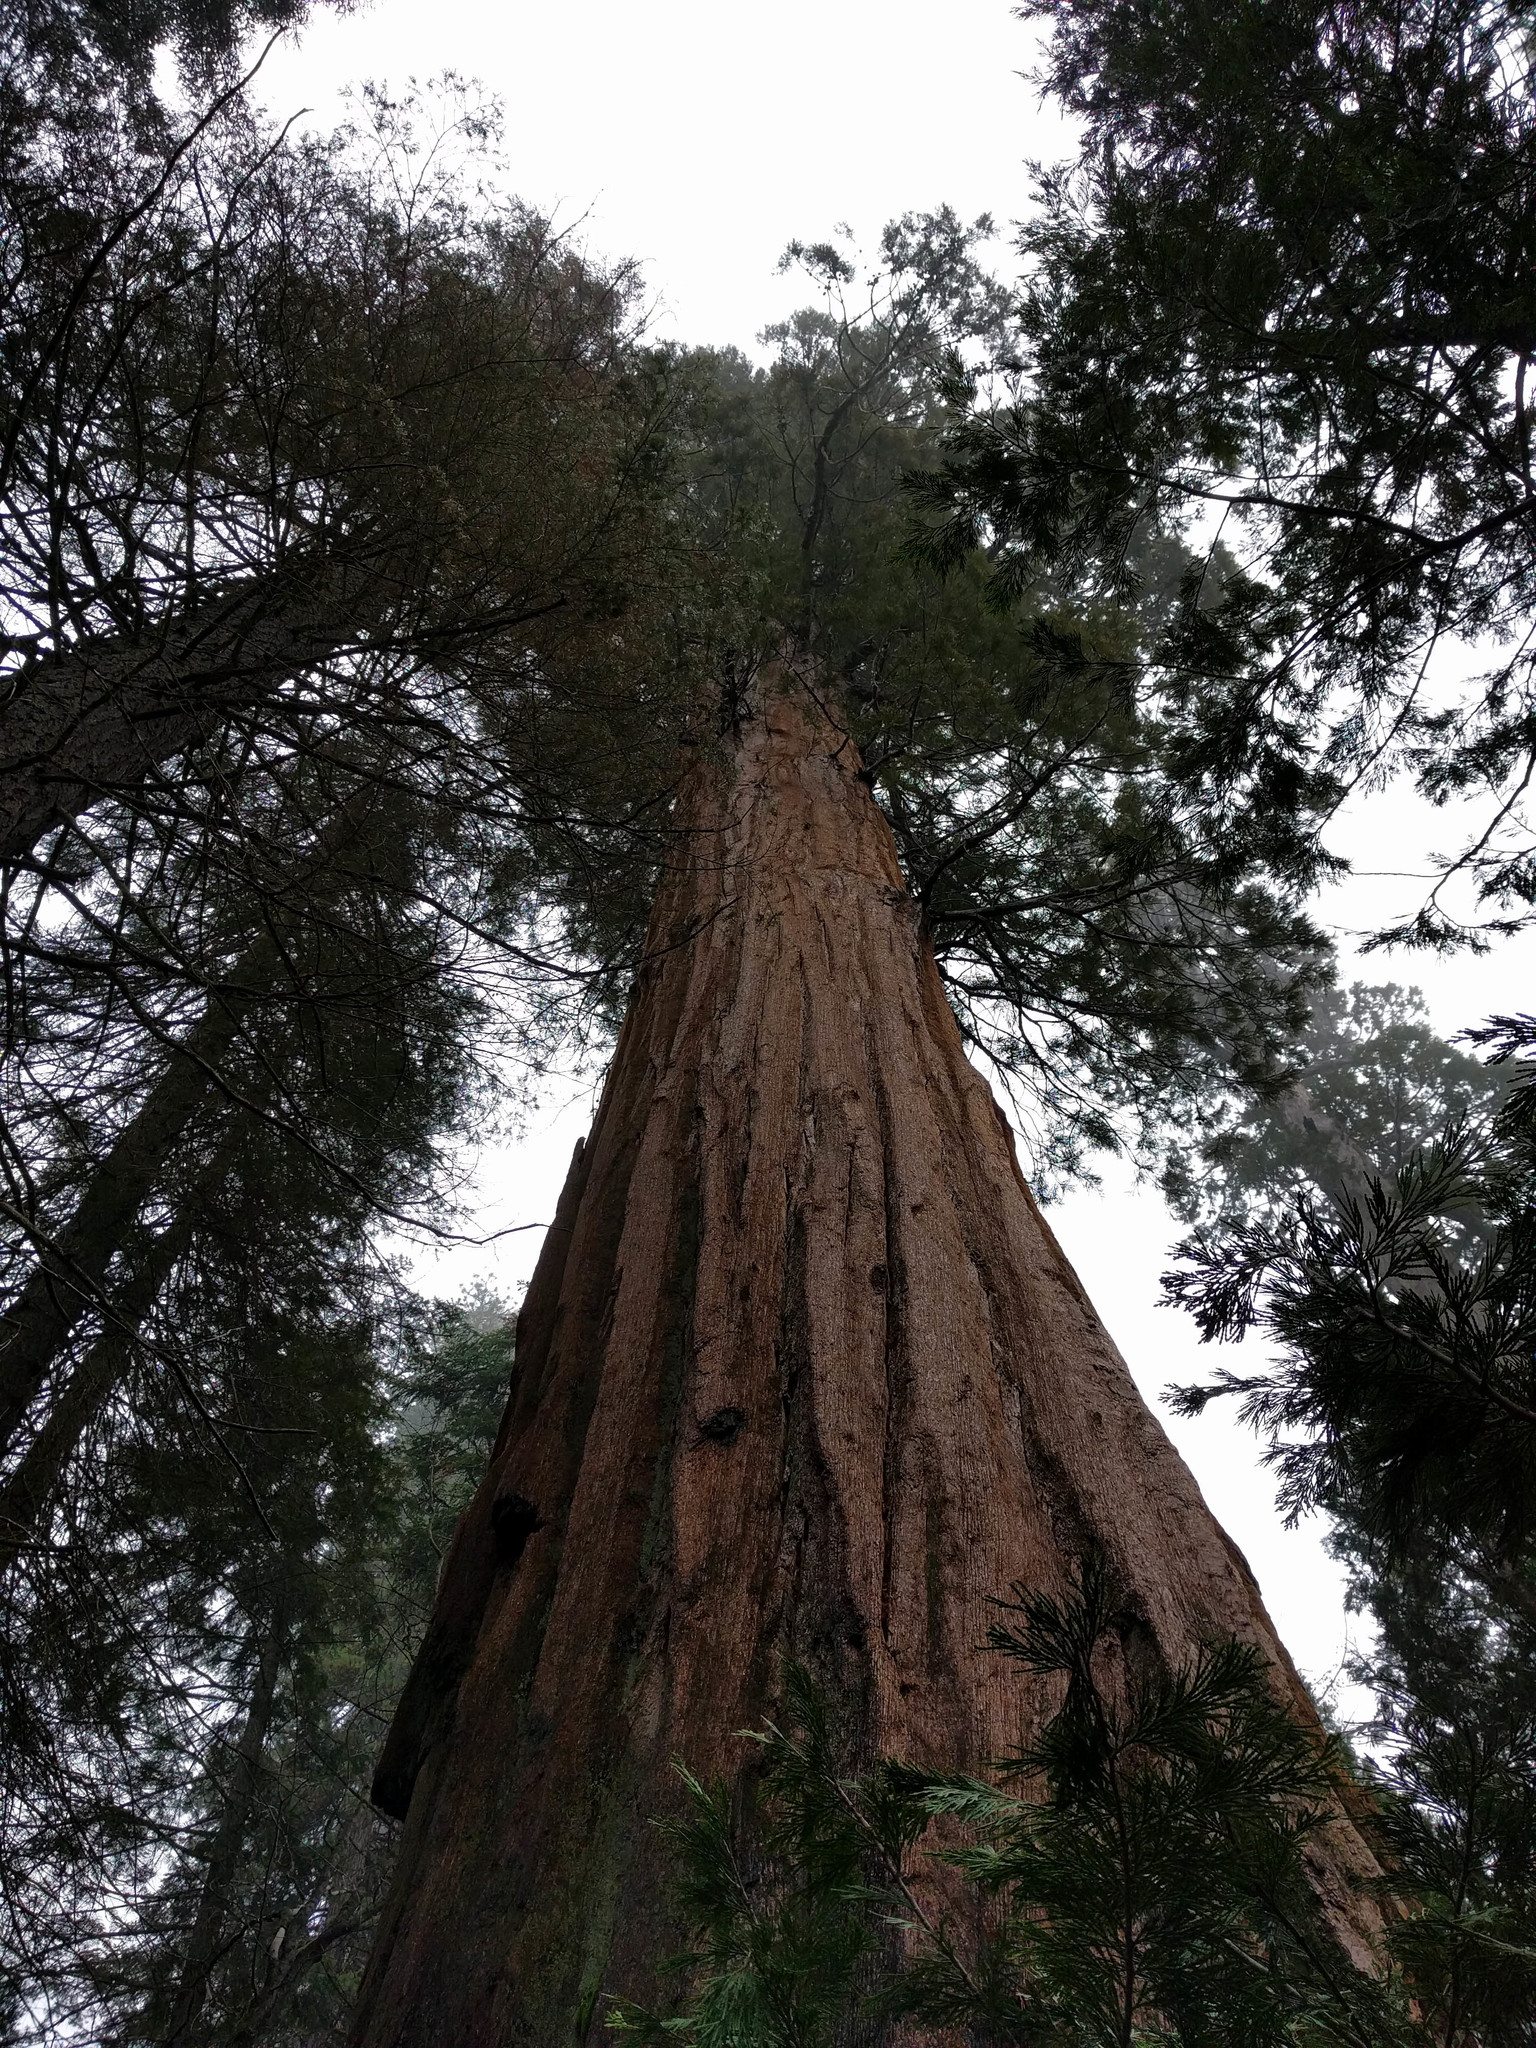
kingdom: Plantae
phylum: Tracheophyta
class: Pinopsida
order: Pinales
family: Cupressaceae
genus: Sequoiadendron
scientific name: Sequoiadendron giganteum
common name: Wellingtonia
